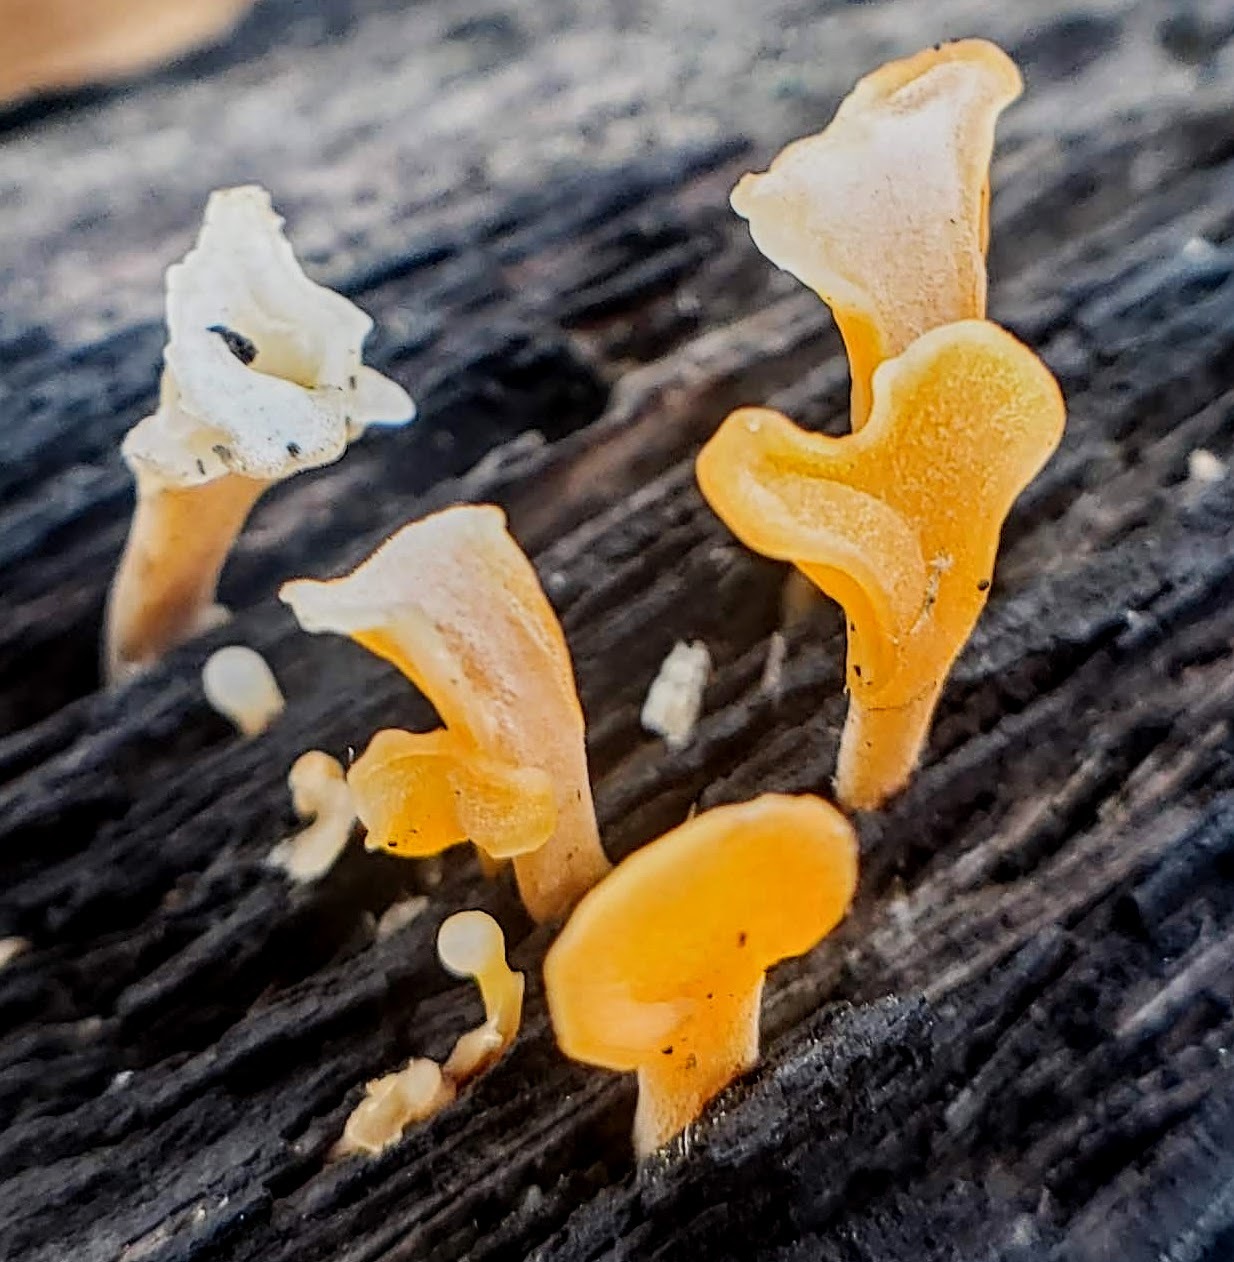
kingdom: Fungi
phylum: Basidiomycota
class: Dacrymycetes
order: Dacrymycetales
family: Dacrymycetaceae
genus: Dacrymyces
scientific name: Dacrymyces spathularius
